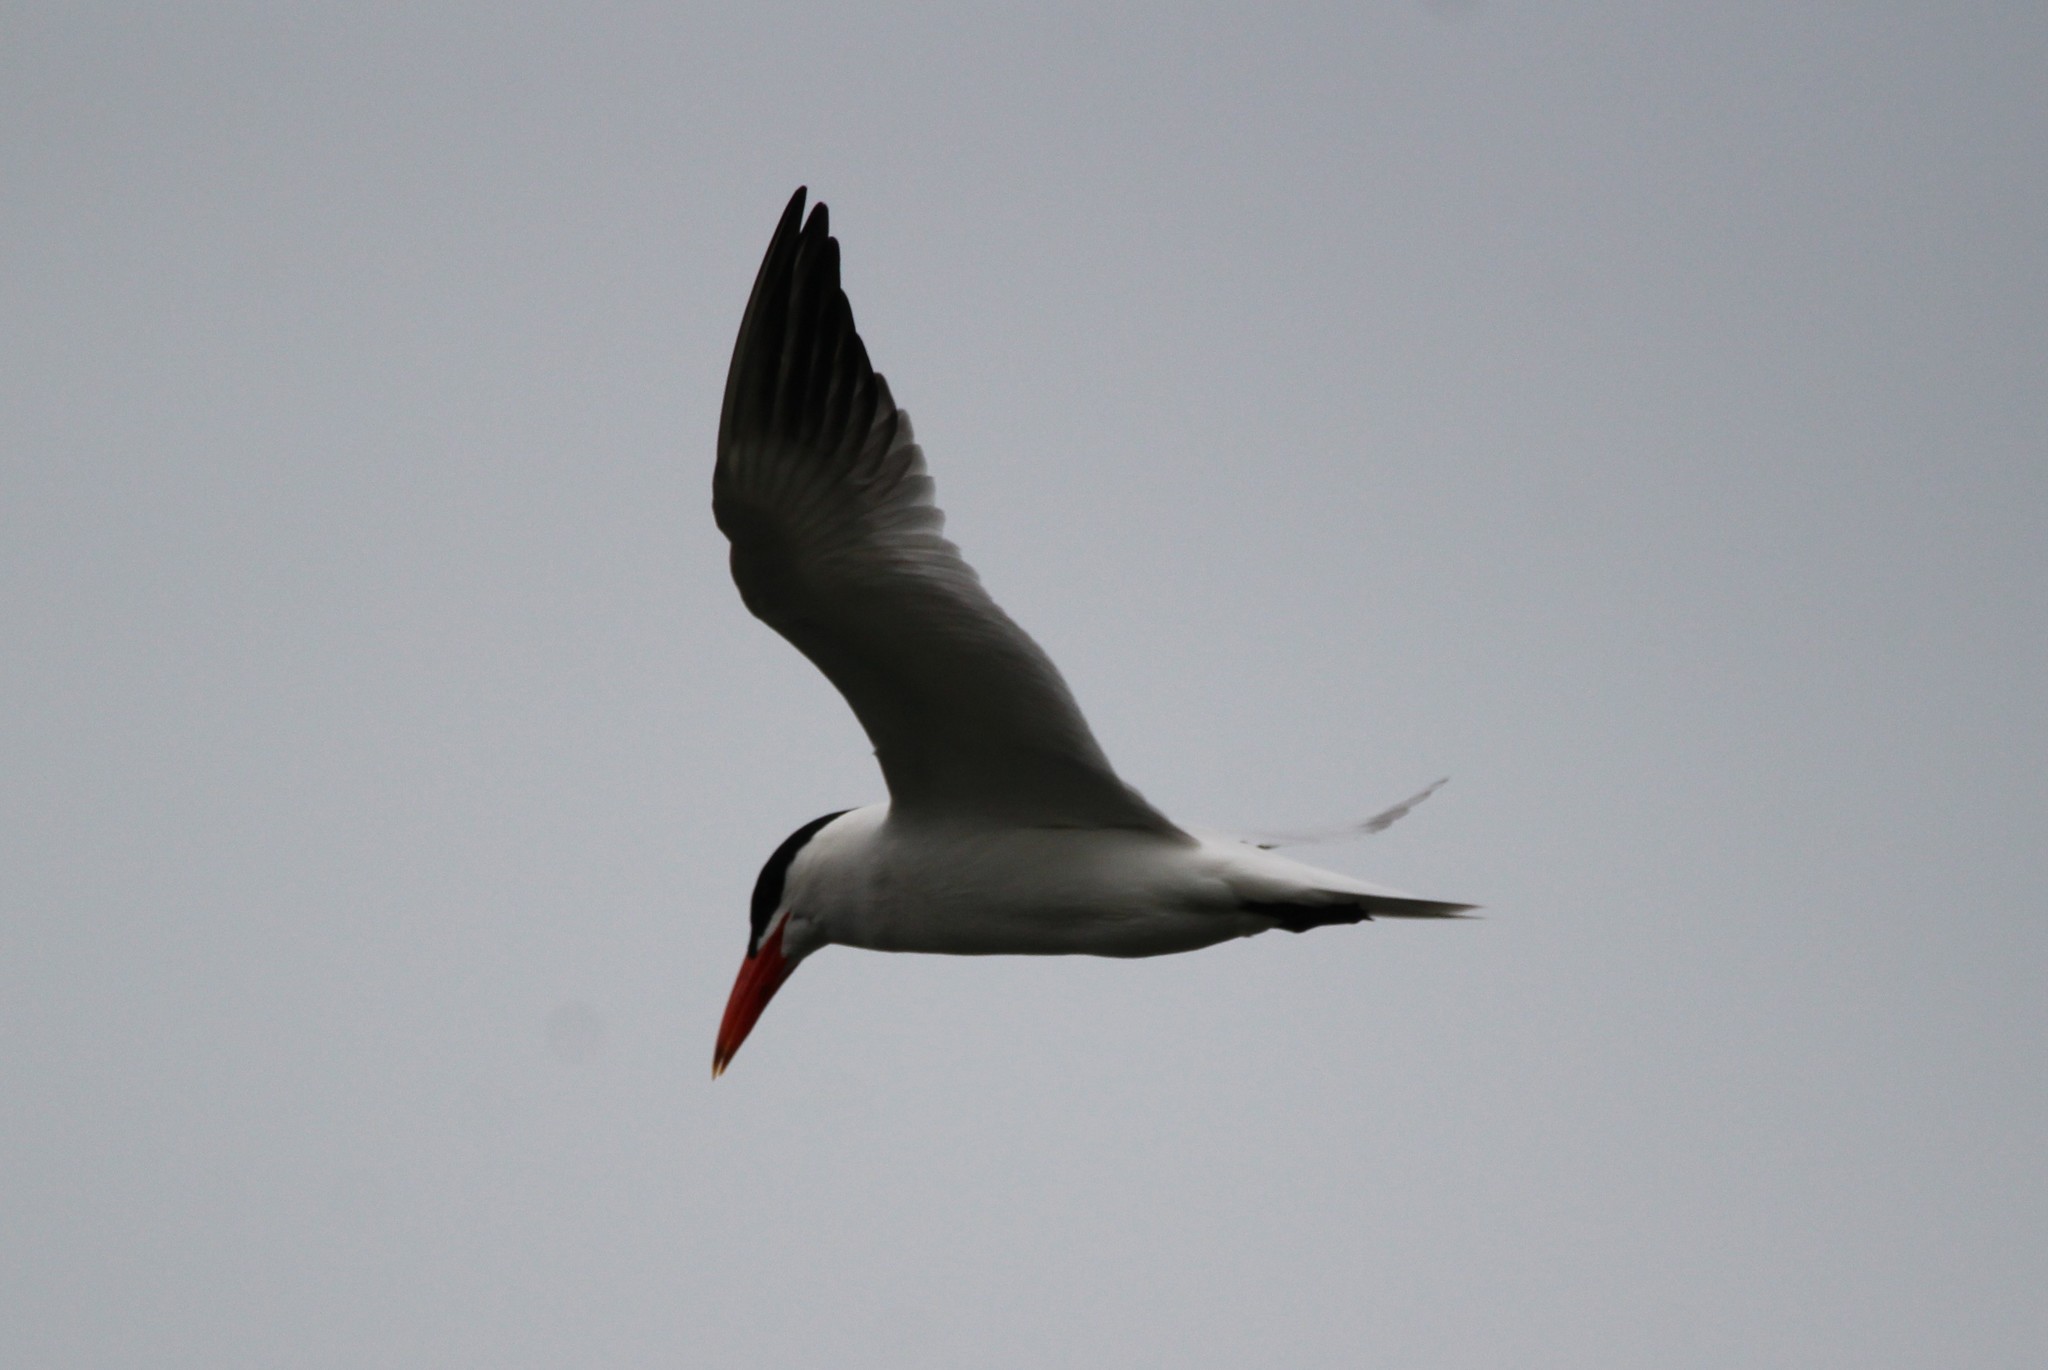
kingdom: Animalia
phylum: Chordata
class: Aves
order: Charadriiformes
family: Laridae
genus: Hydroprogne
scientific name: Hydroprogne caspia
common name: Caspian tern
